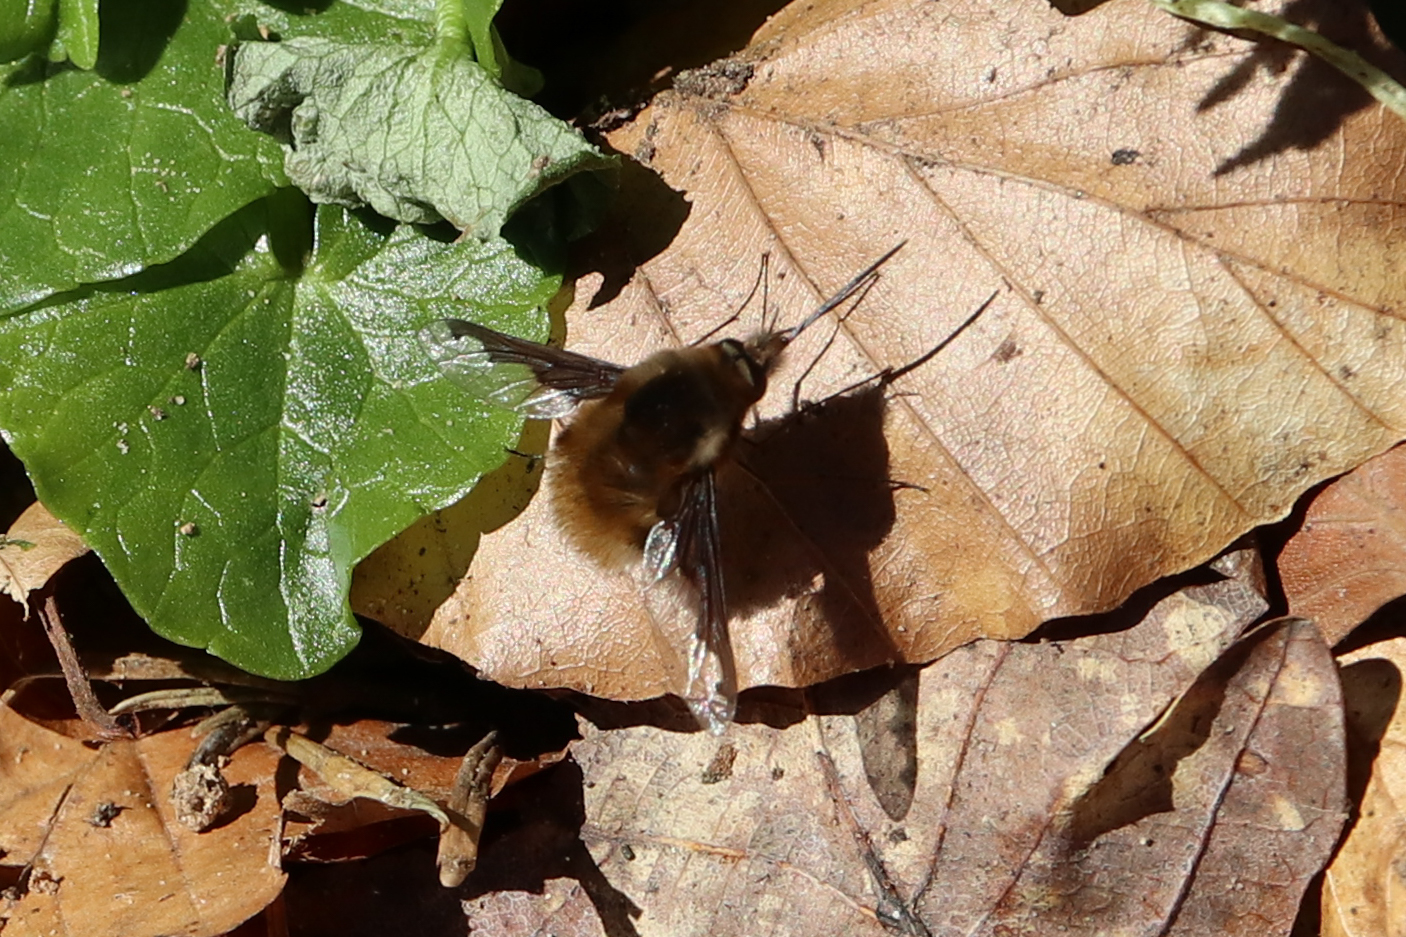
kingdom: Animalia
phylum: Arthropoda
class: Insecta
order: Diptera
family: Bombyliidae
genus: Bombylius
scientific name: Bombylius major
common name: Bee fly
